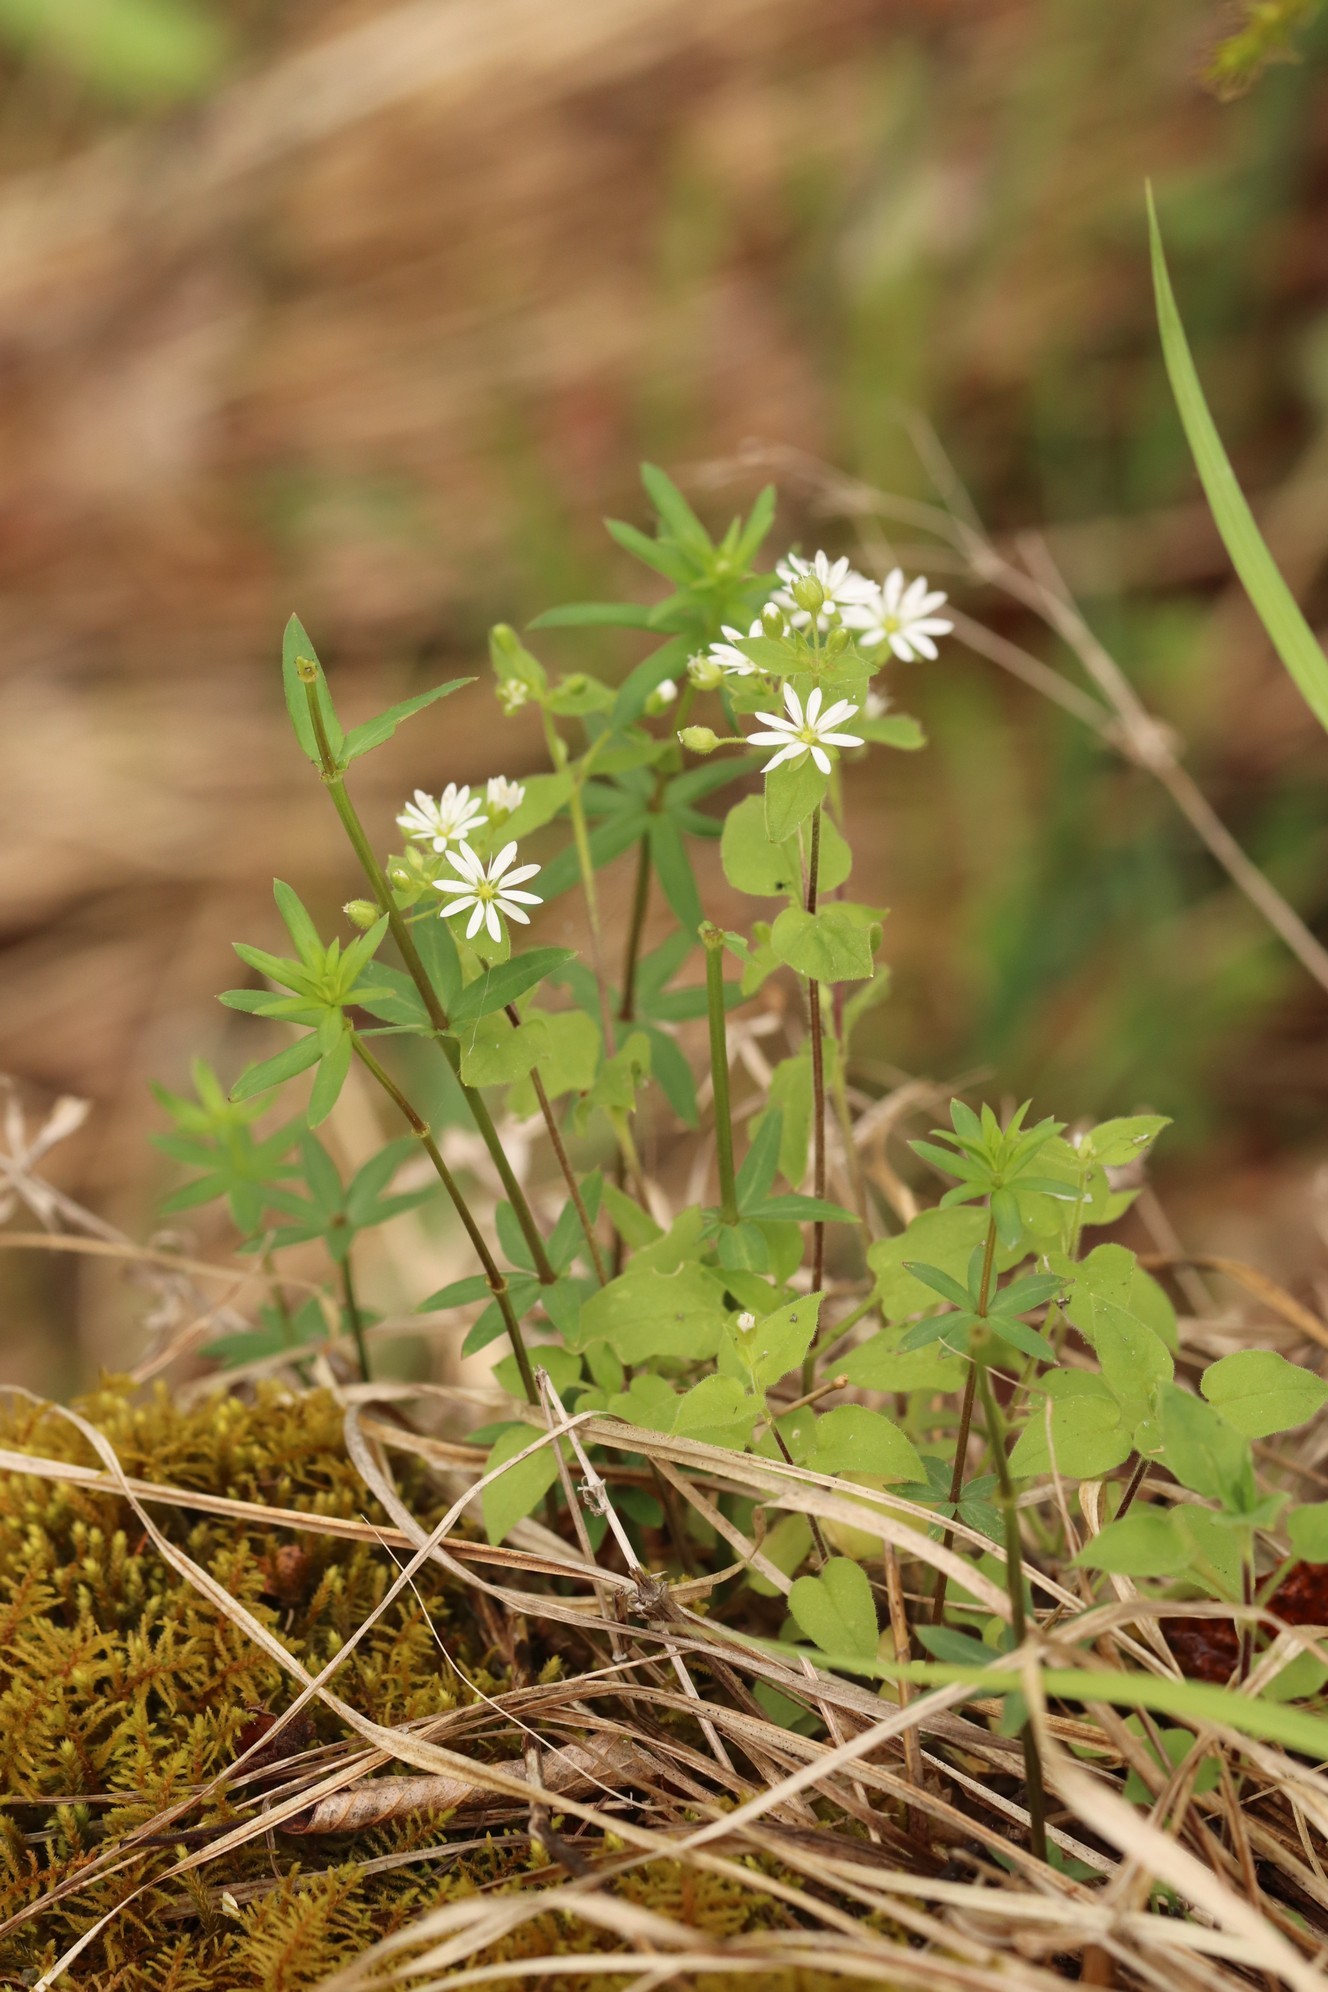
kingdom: Plantae
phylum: Tracheophyta
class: Magnoliopsida
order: Caryophyllales
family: Caryophyllaceae
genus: Stellaria
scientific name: Stellaria bungeana
